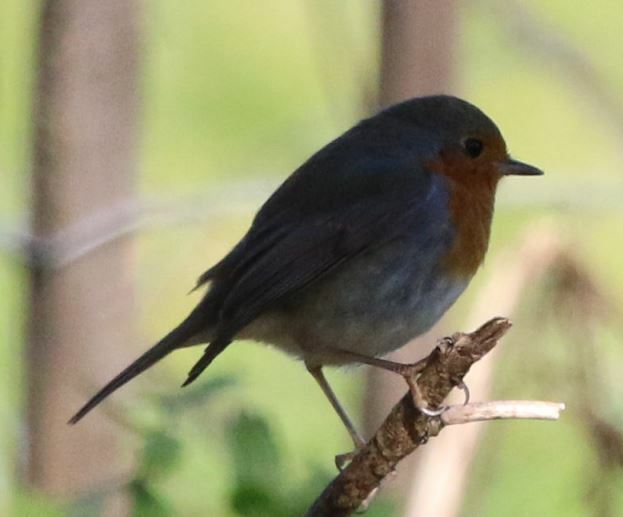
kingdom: Animalia
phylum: Chordata
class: Aves
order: Passeriformes
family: Muscicapidae
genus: Erithacus
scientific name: Erithacus rubecula
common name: European robin
